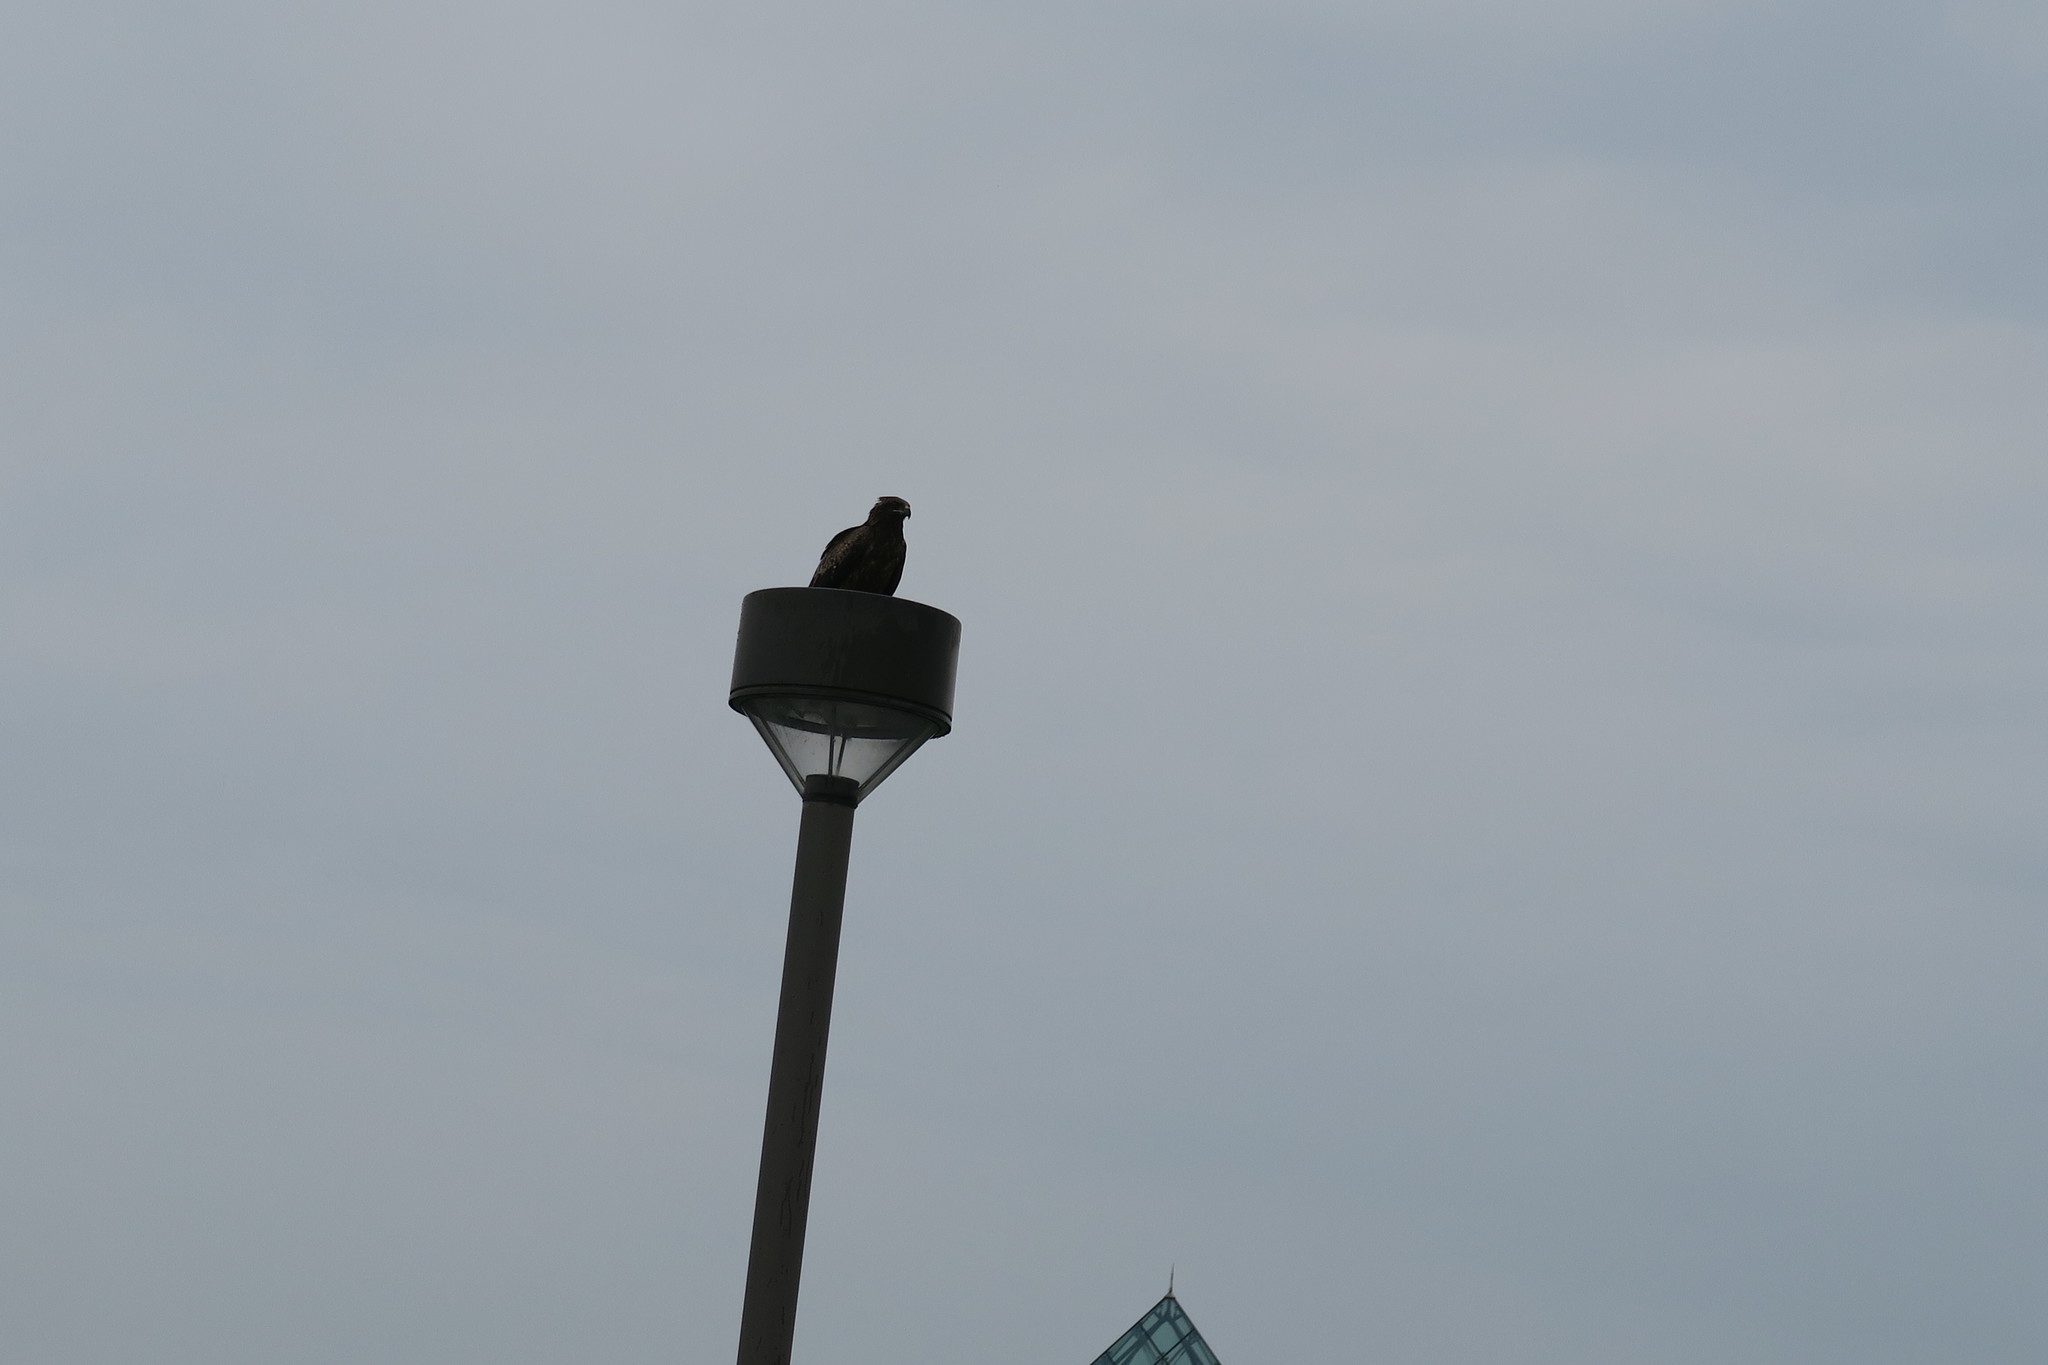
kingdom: Animalia
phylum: Chordata
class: Aves
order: Accipitriformes
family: Accipitridae
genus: Milvus
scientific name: Milvus migrans
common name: Black kite
